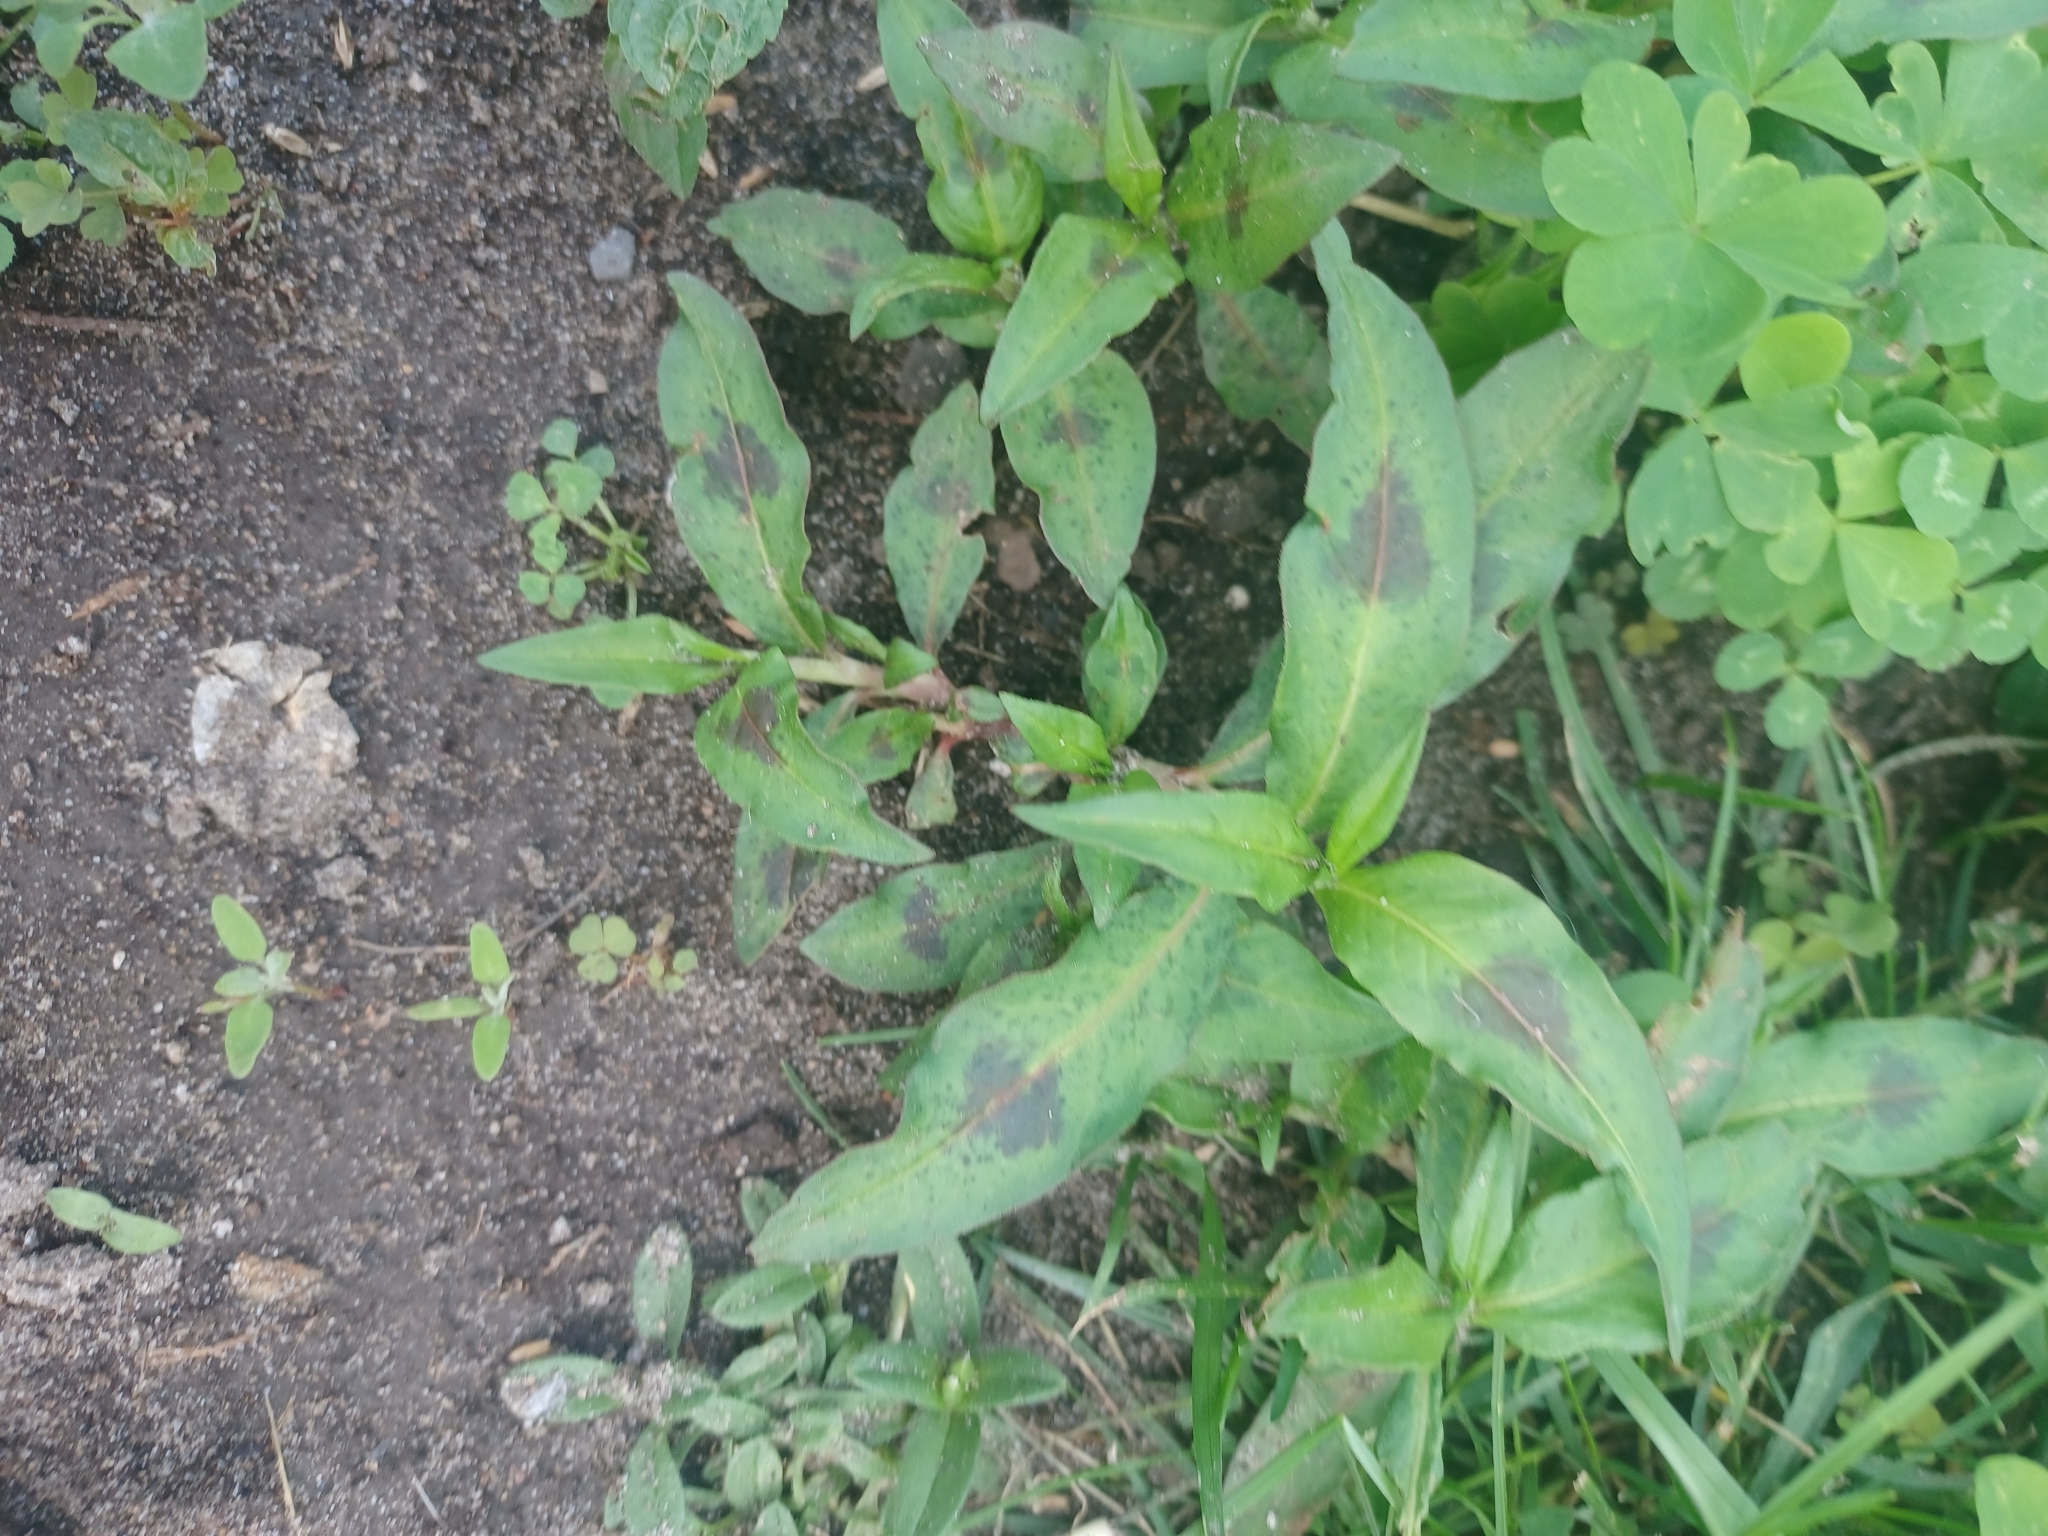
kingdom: Plantae
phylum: Tracheophyta
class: Magnoliopsida
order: Caryophyllales
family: Polygonaceae
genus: Persicaria
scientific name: Persicaria maculosa
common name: Redshank
